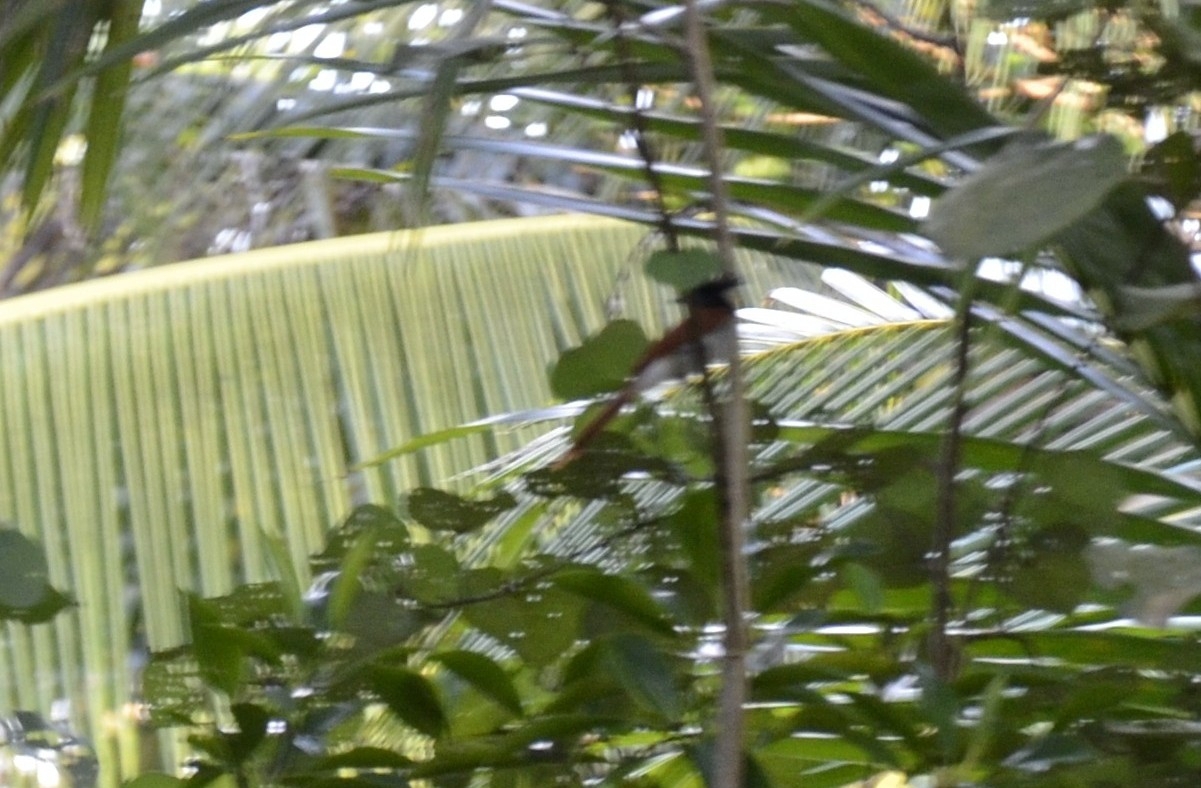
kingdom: Animalia
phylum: Chordata
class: Aves
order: Passeriformes
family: Monarchidae
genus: Terpsiphone
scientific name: Terpsiphone paradisi
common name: Indian paradise flycatcher
